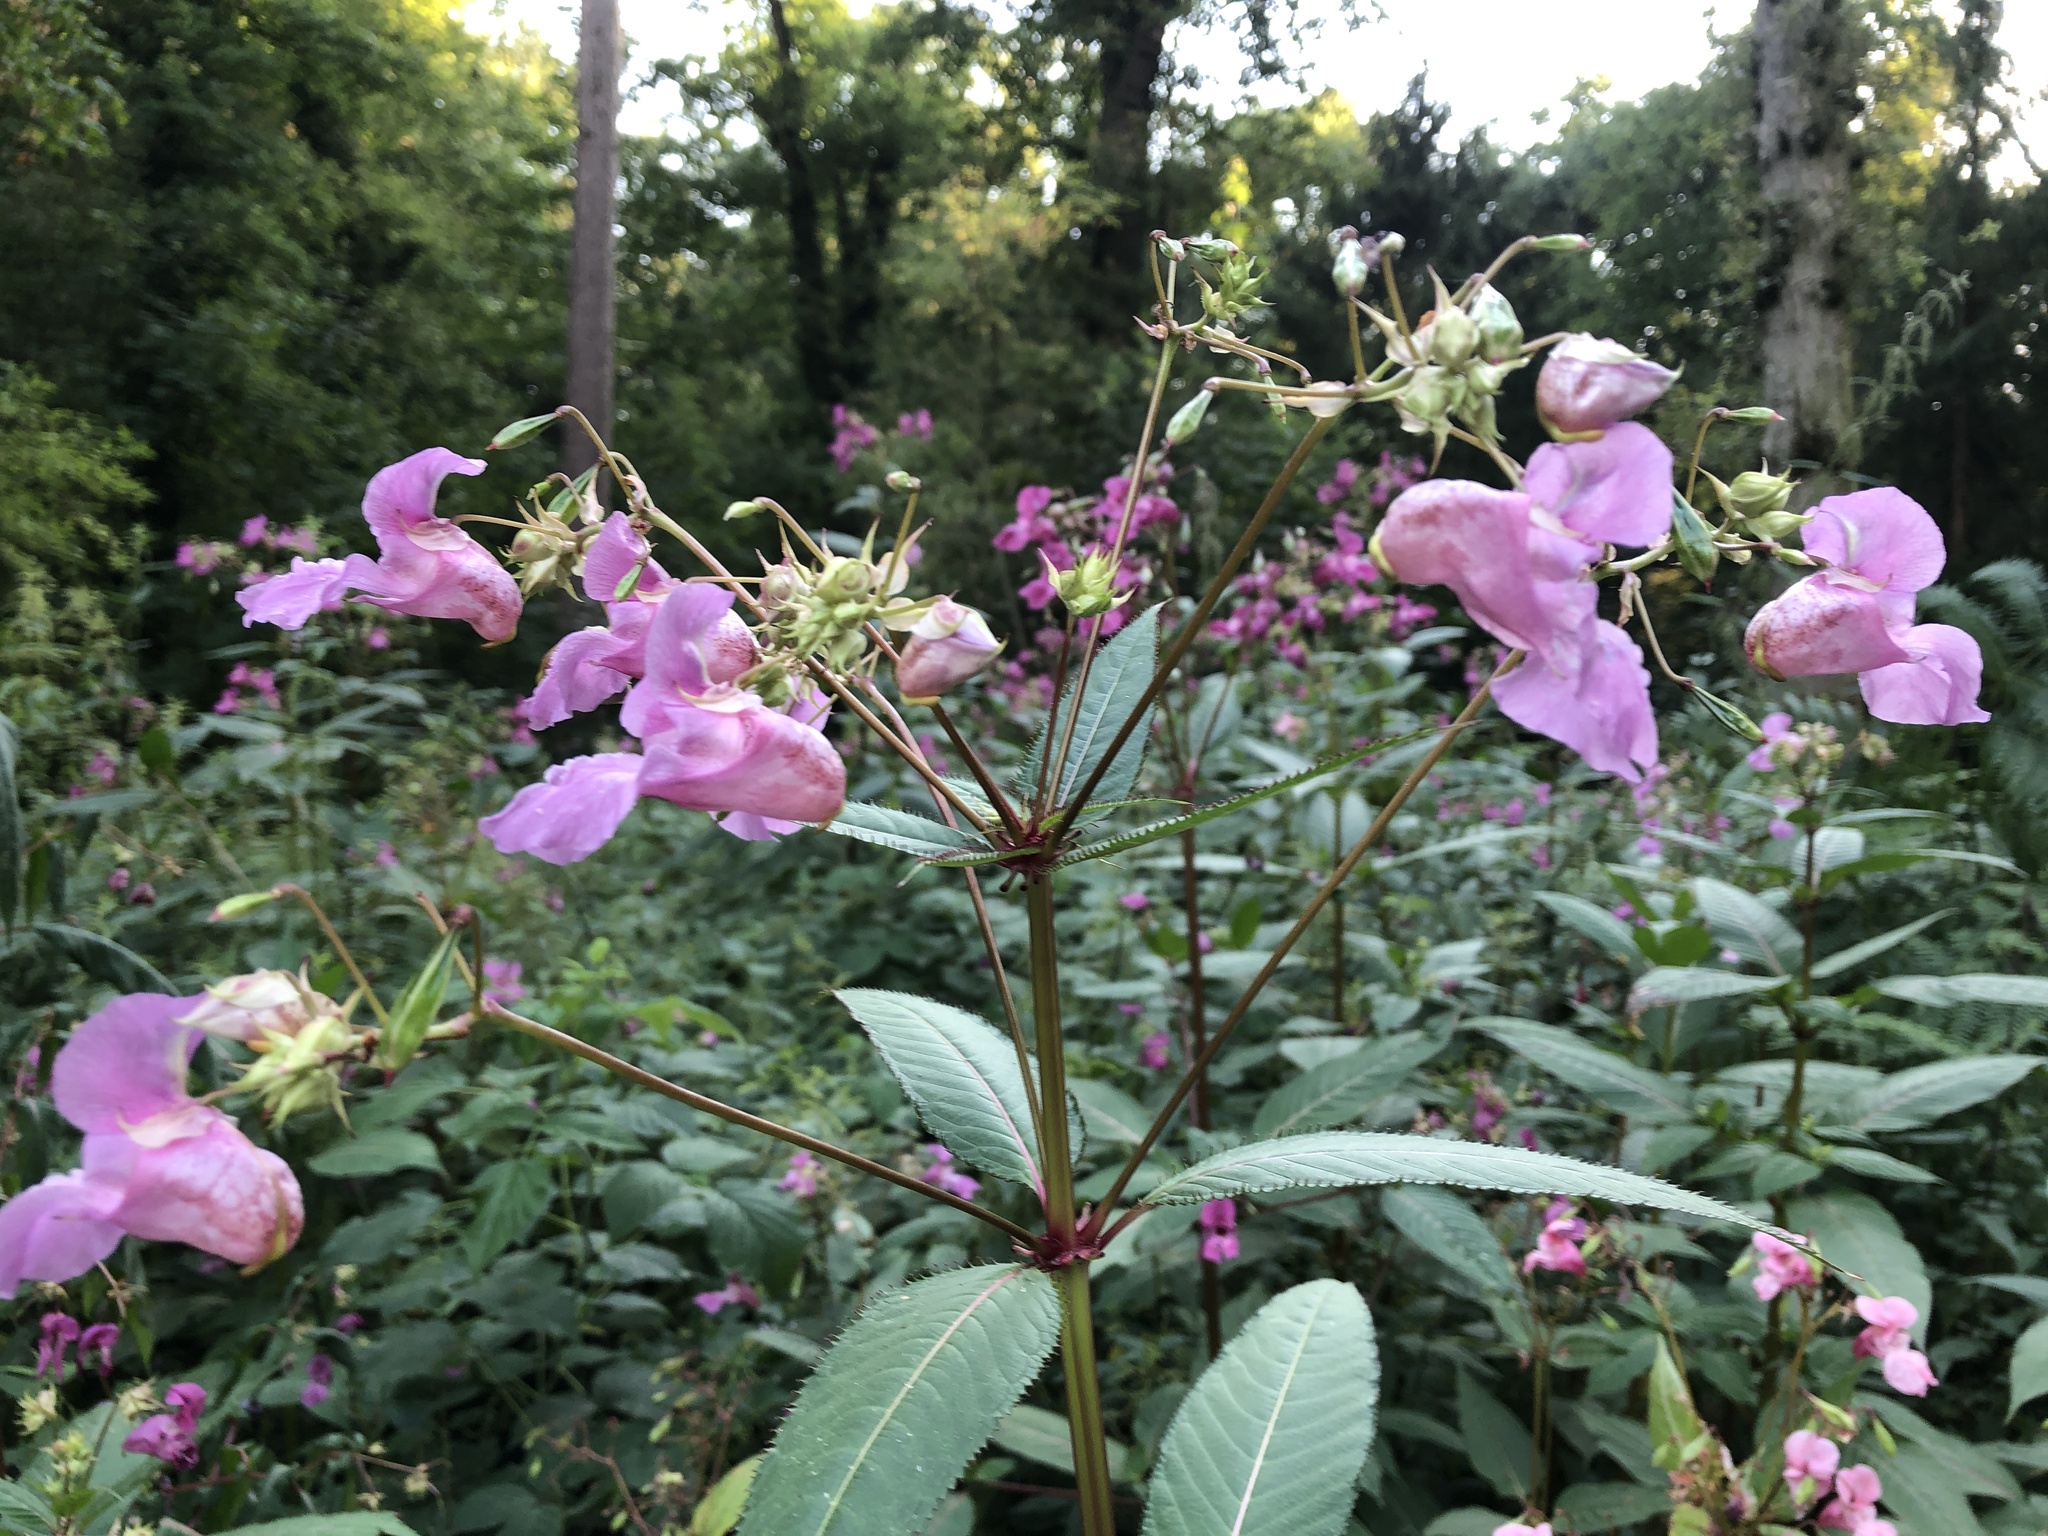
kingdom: Plantae
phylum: Tracheophyta
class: Magnoliopsida
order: Ericales
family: Balsaminaceae
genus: Impatiens
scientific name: Impatiens glandulifera
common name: Himalayan balsam
